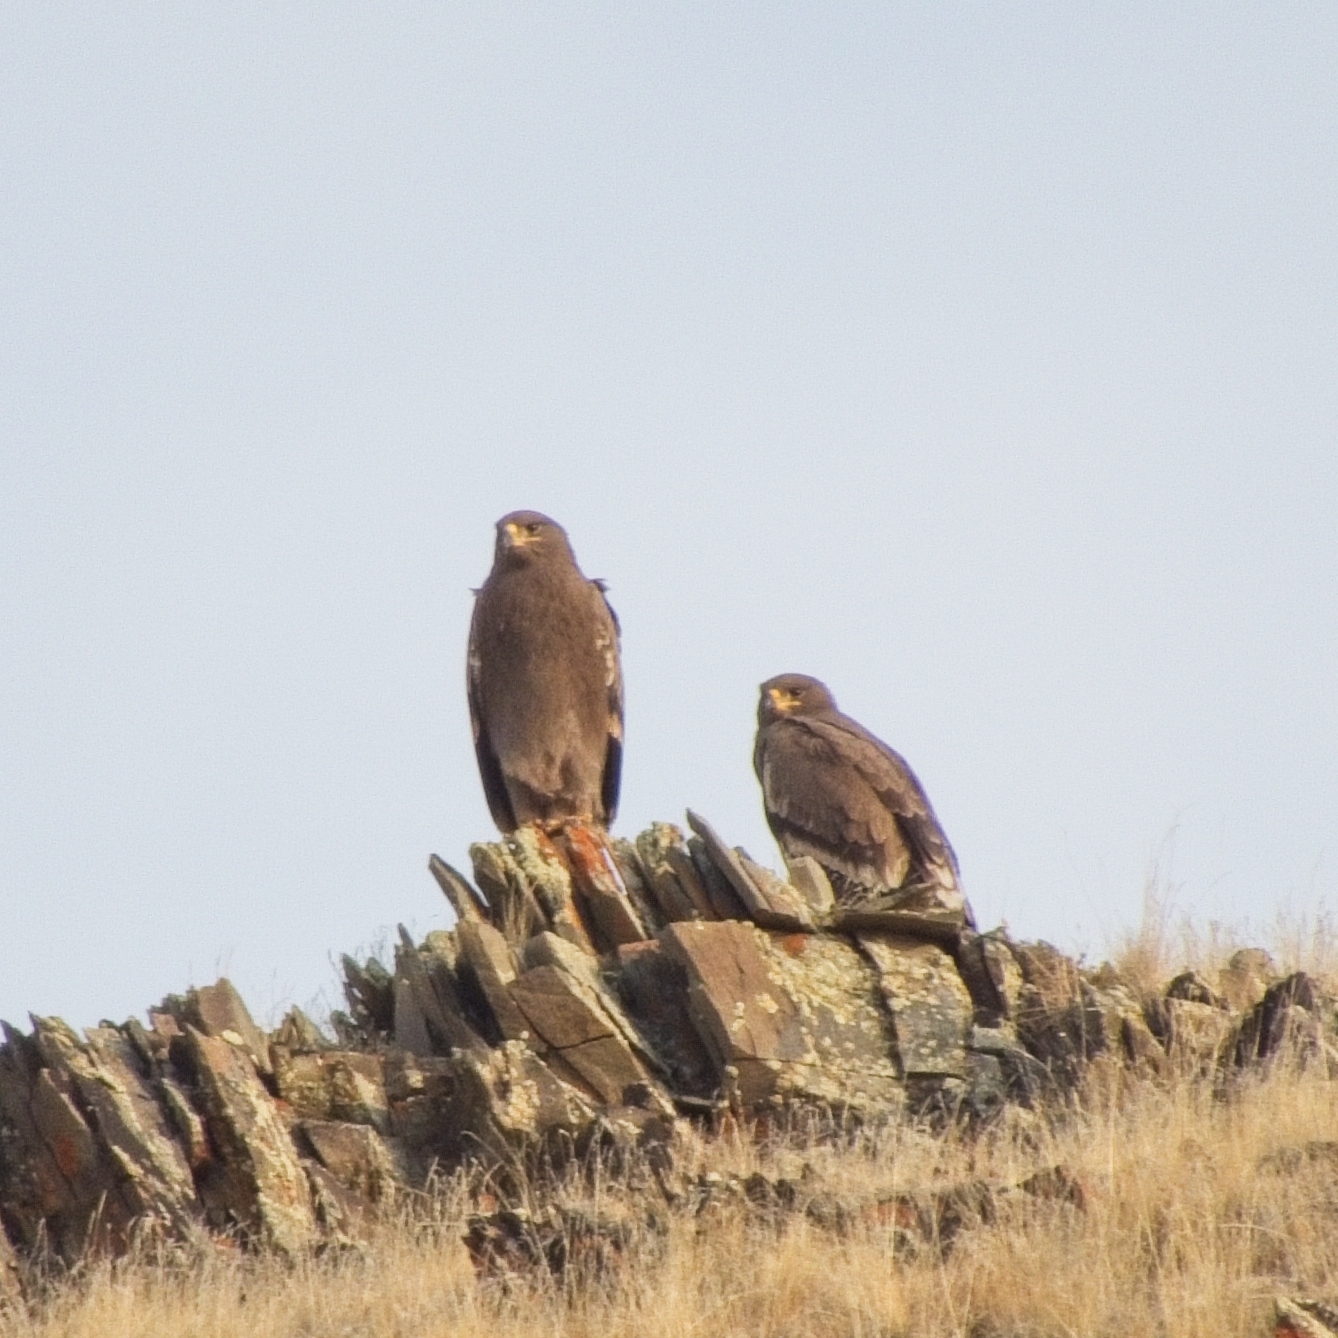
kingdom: Animalia
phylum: Chordata
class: Aves
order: Accipitriformes
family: Accipitridae
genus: Aquila
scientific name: Aquila nipalensis
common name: Steppe eagle
